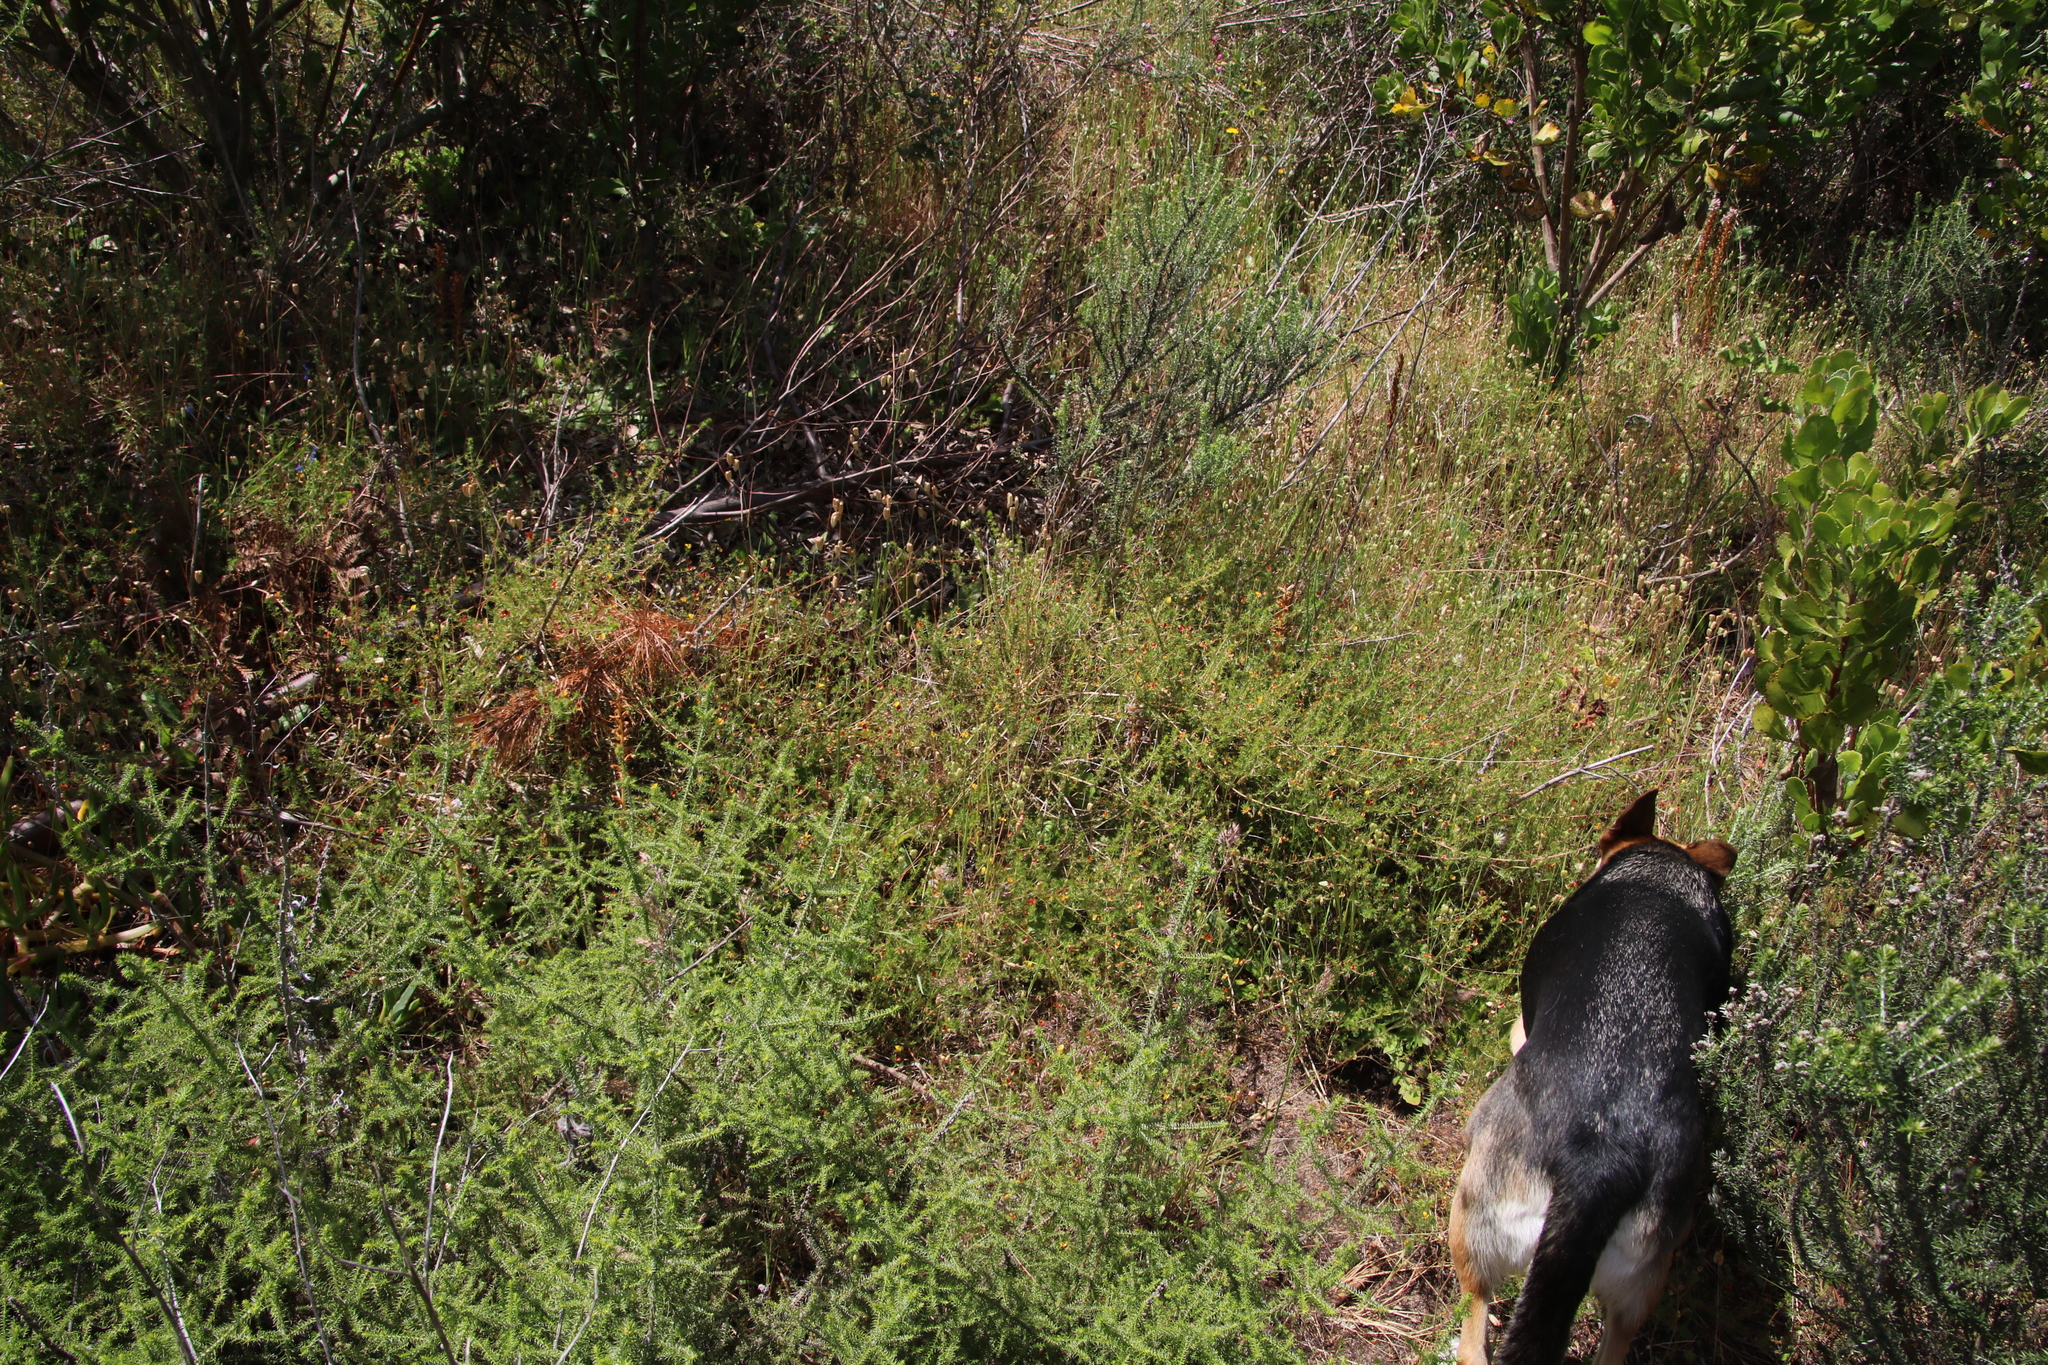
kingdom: Plantae
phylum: Tracheophyta
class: Magnoliopsida
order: Asterales
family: Asteraceae
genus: Seriphium
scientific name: Seriphium cinereum
